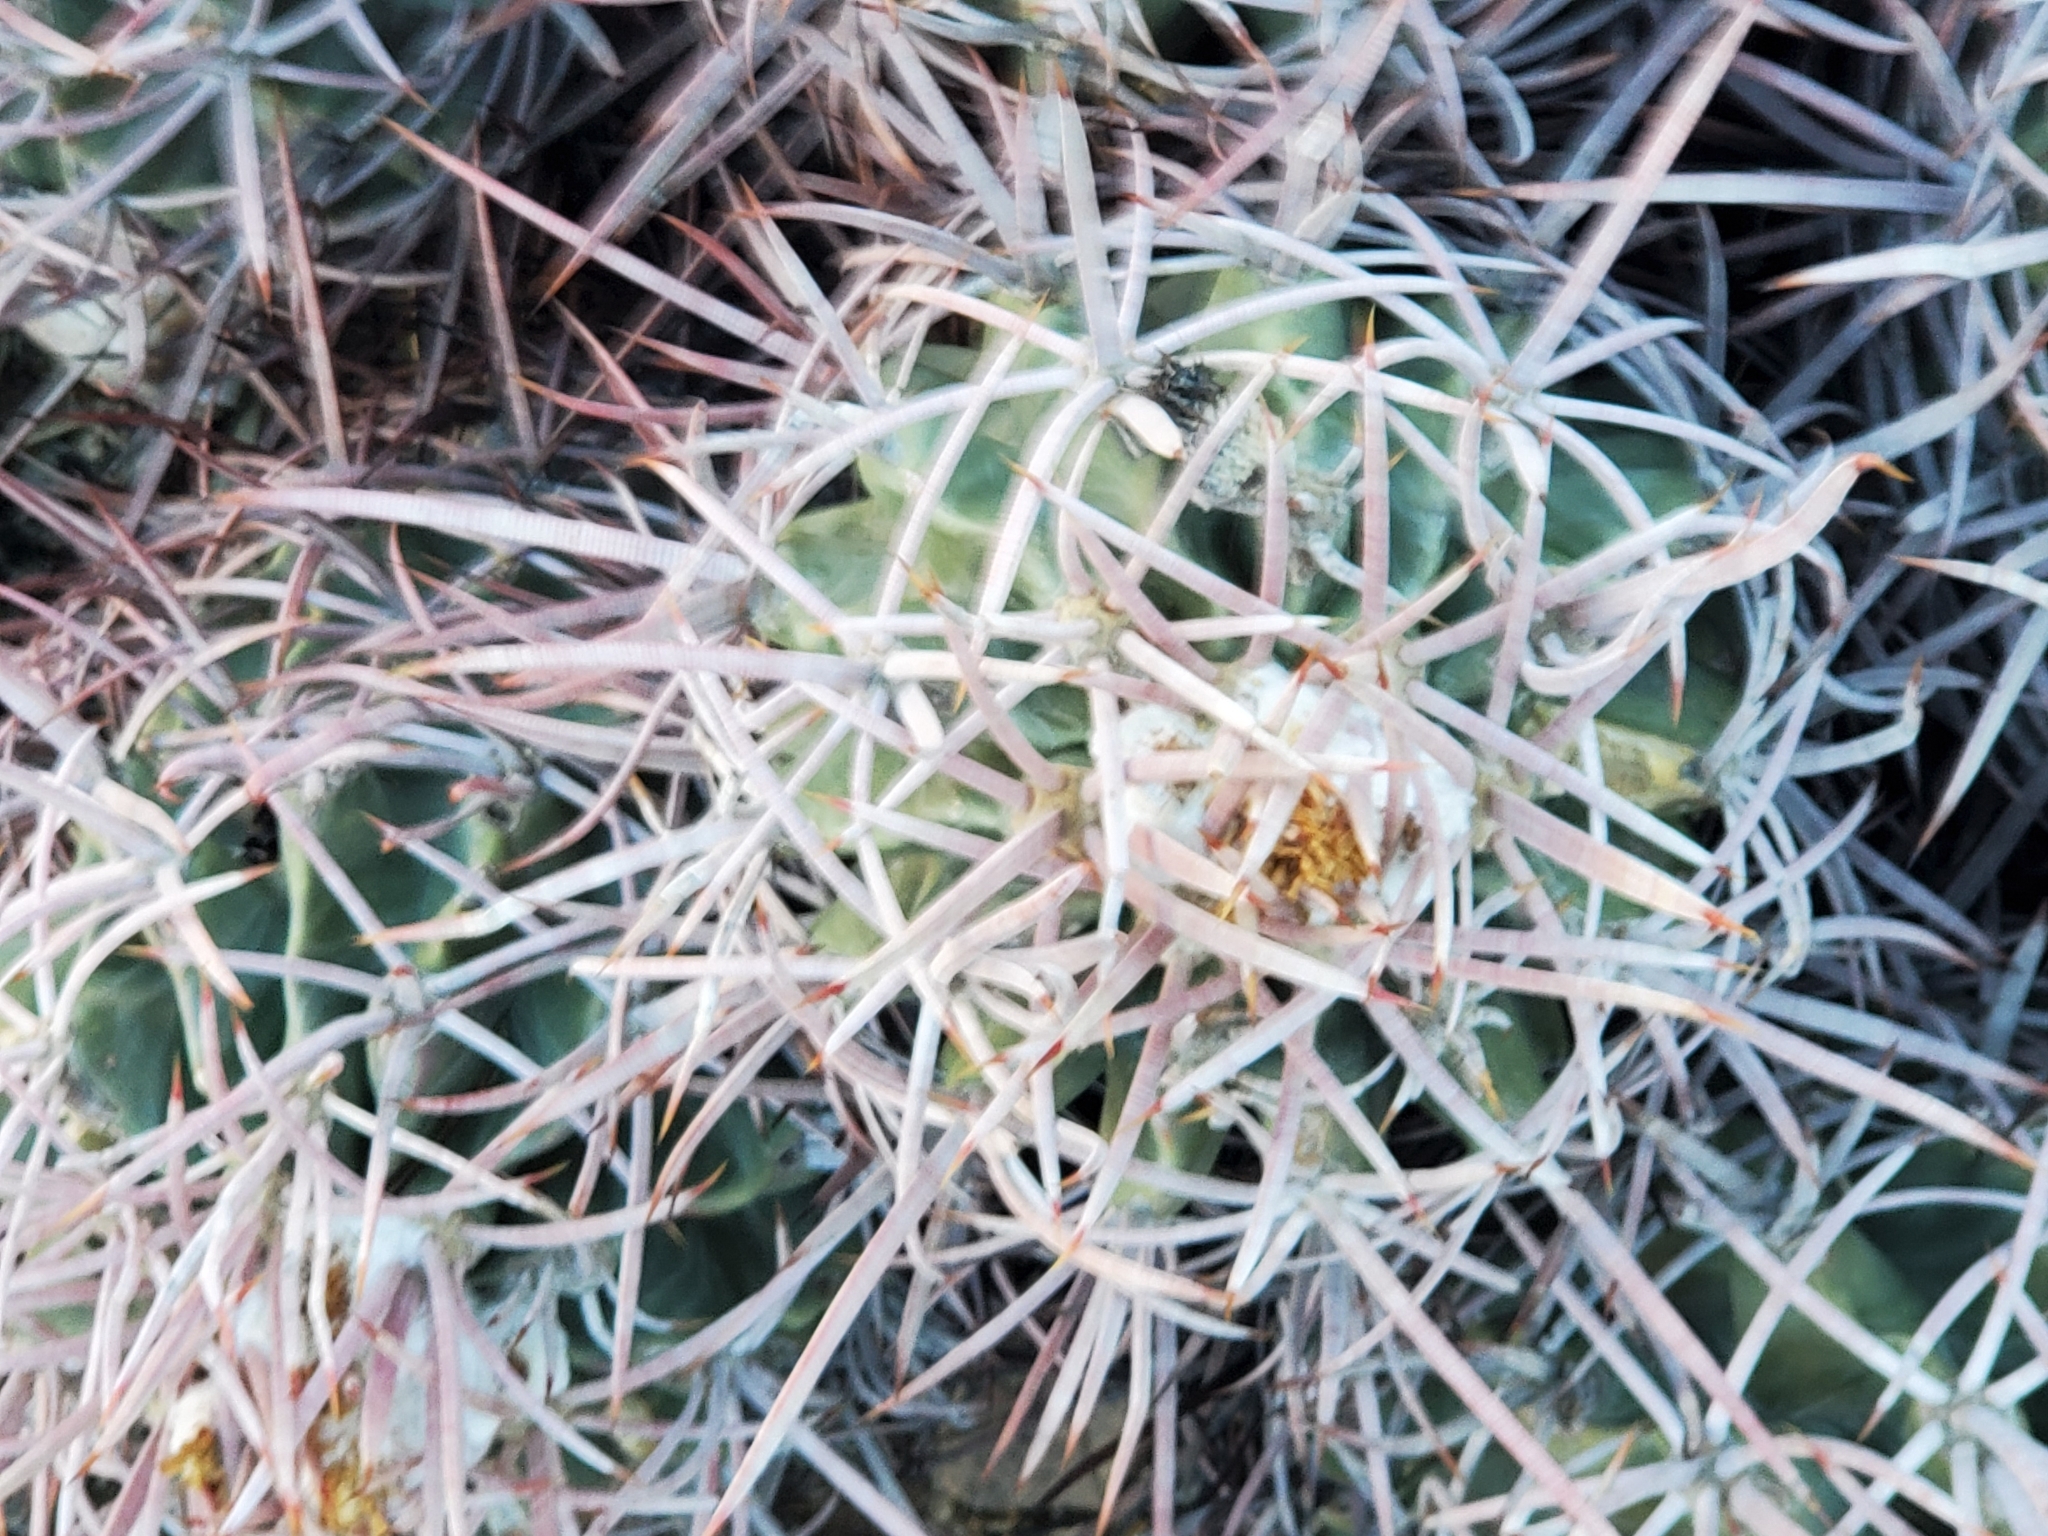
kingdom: Plantae
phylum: Tracheophyta
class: Magnoliopsida
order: Caryophyllales
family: Cactaceae
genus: Echinocactus
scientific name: Echinocactus polycephalus
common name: Cottontop cactus
